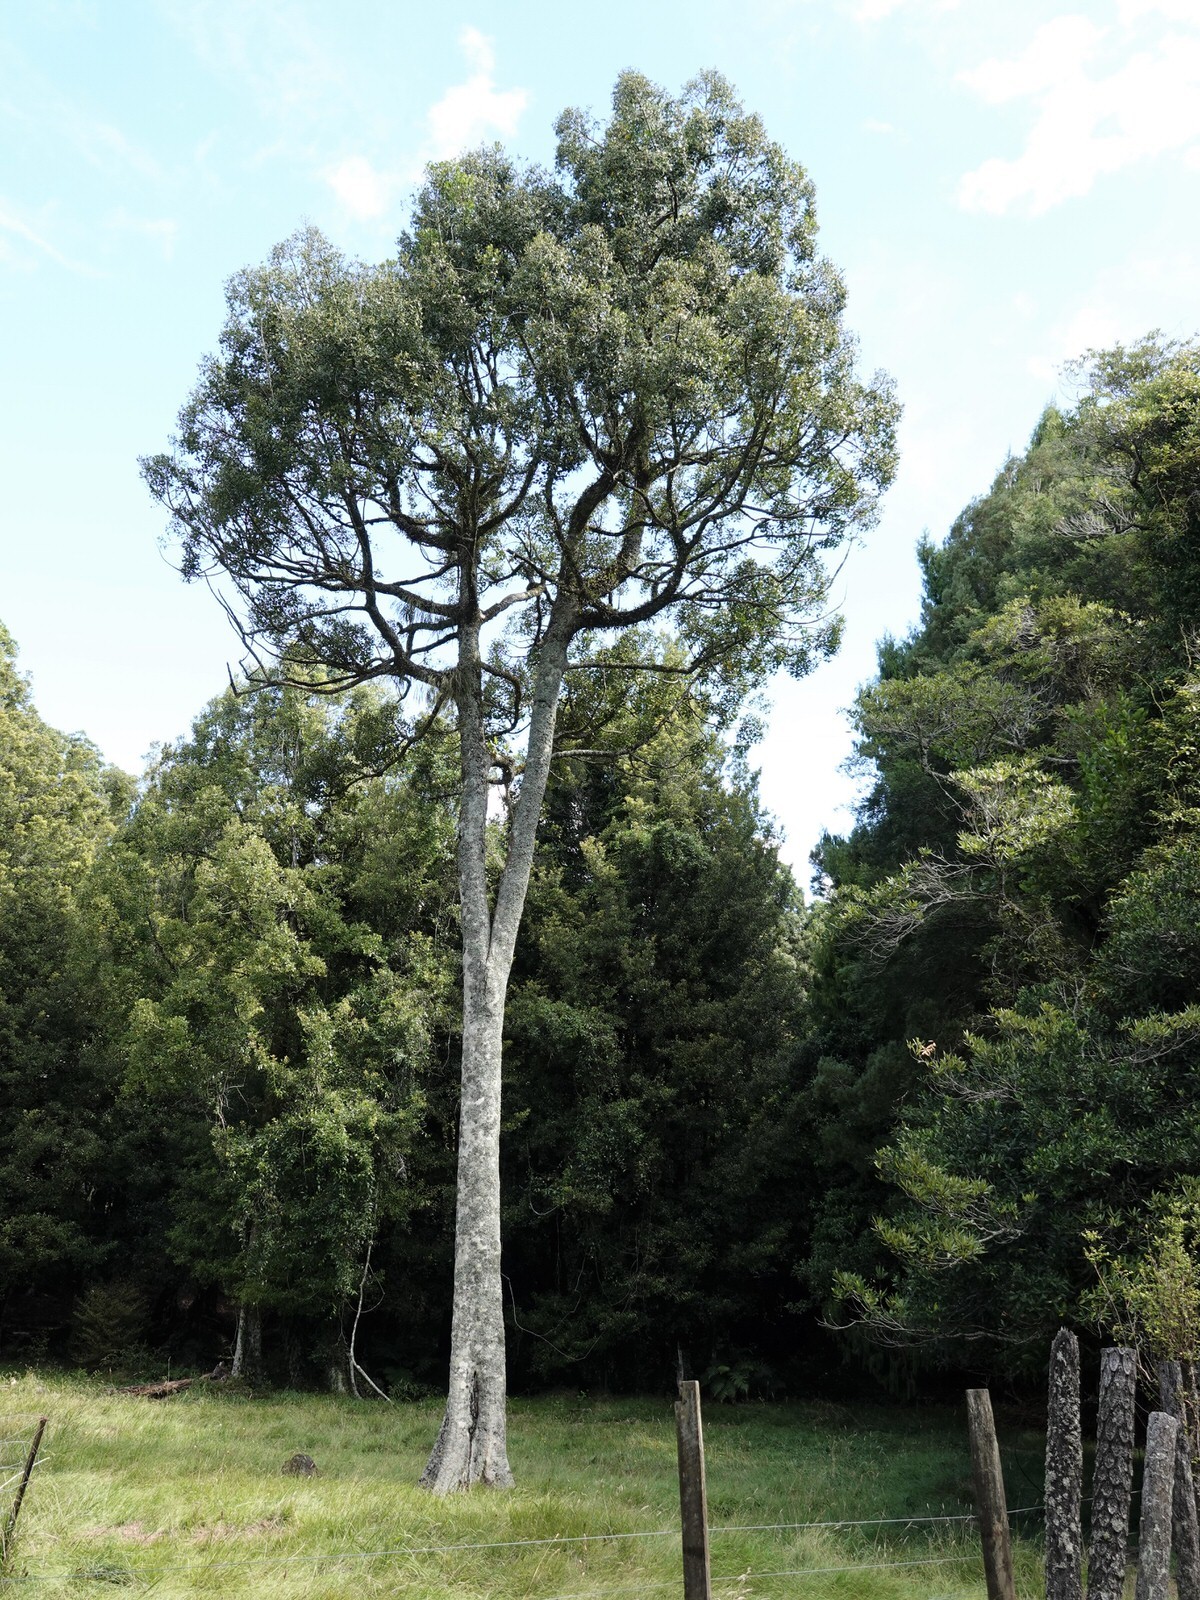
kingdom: Plantae
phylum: Tracheophyta
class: Magnoliopsida
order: Laurales
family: Atherospermataceae
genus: Laurelia
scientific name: Laurelia novae-zelandiae
